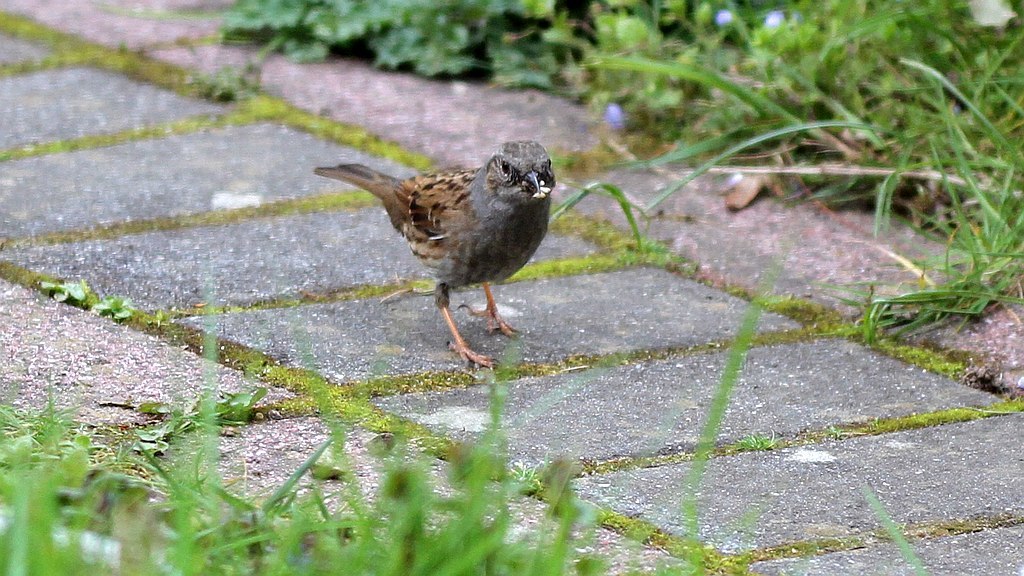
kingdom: Animalia
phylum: Chordata
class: Aves
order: Passeriformes
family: Prunellidae
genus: Prunella
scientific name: Prunella modularis
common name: Dunnock
